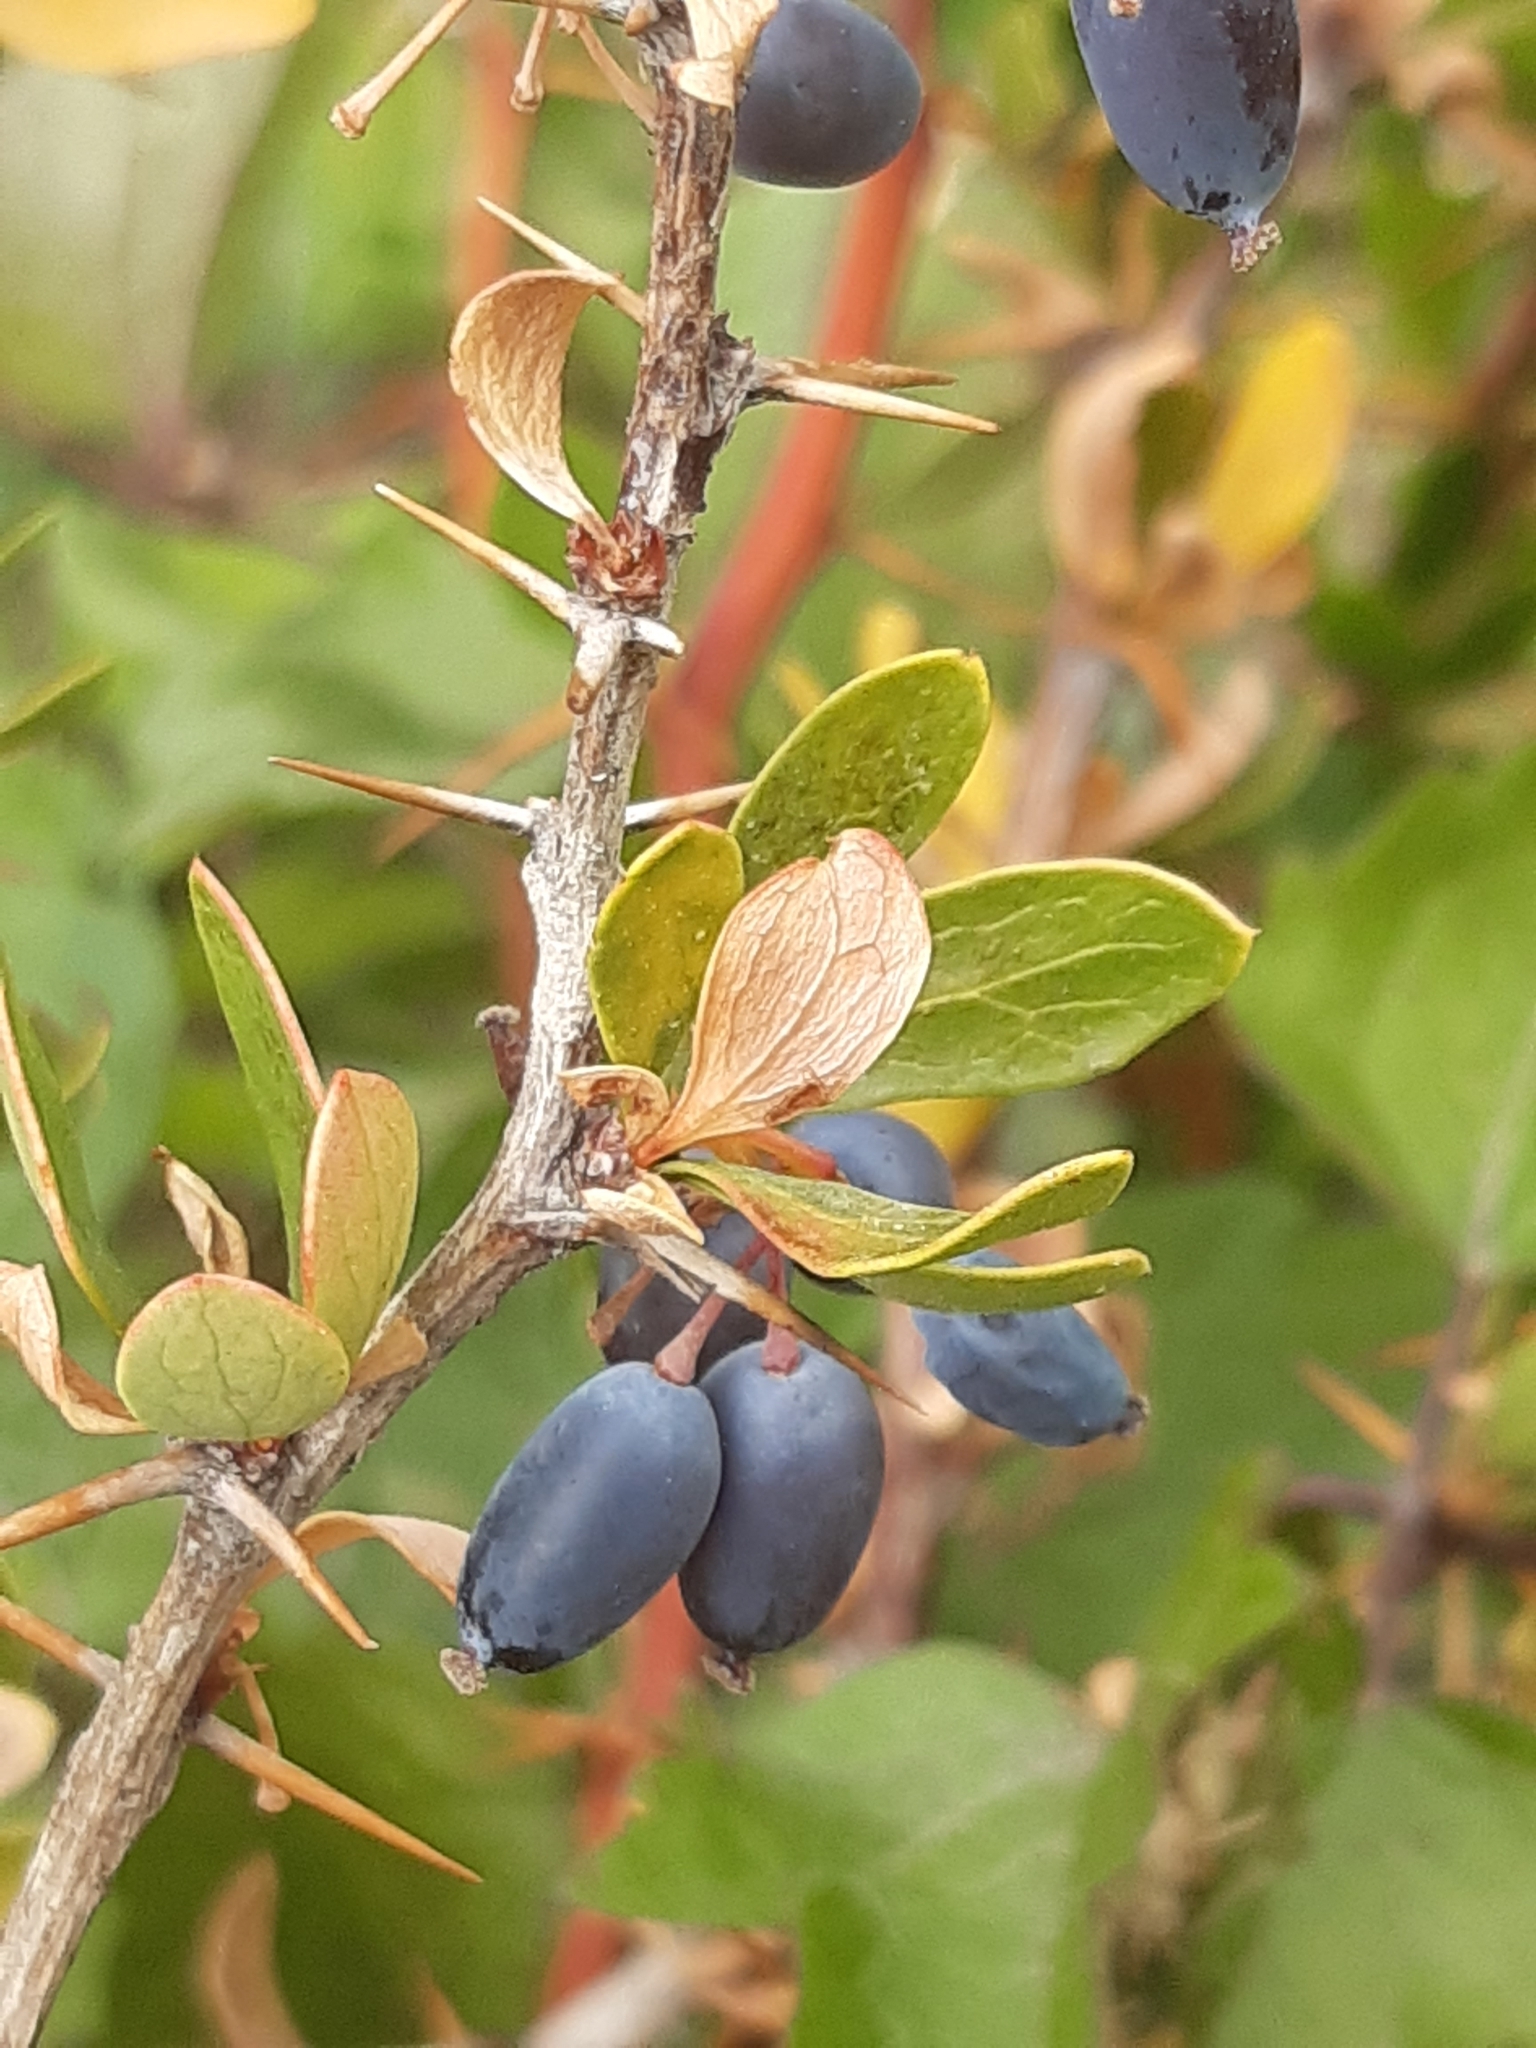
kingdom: Plantae
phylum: Tracheophyta
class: Magnoliopsida
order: Ranunculales
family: Berberidaceae
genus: Berberis
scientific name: Berberis cretica
